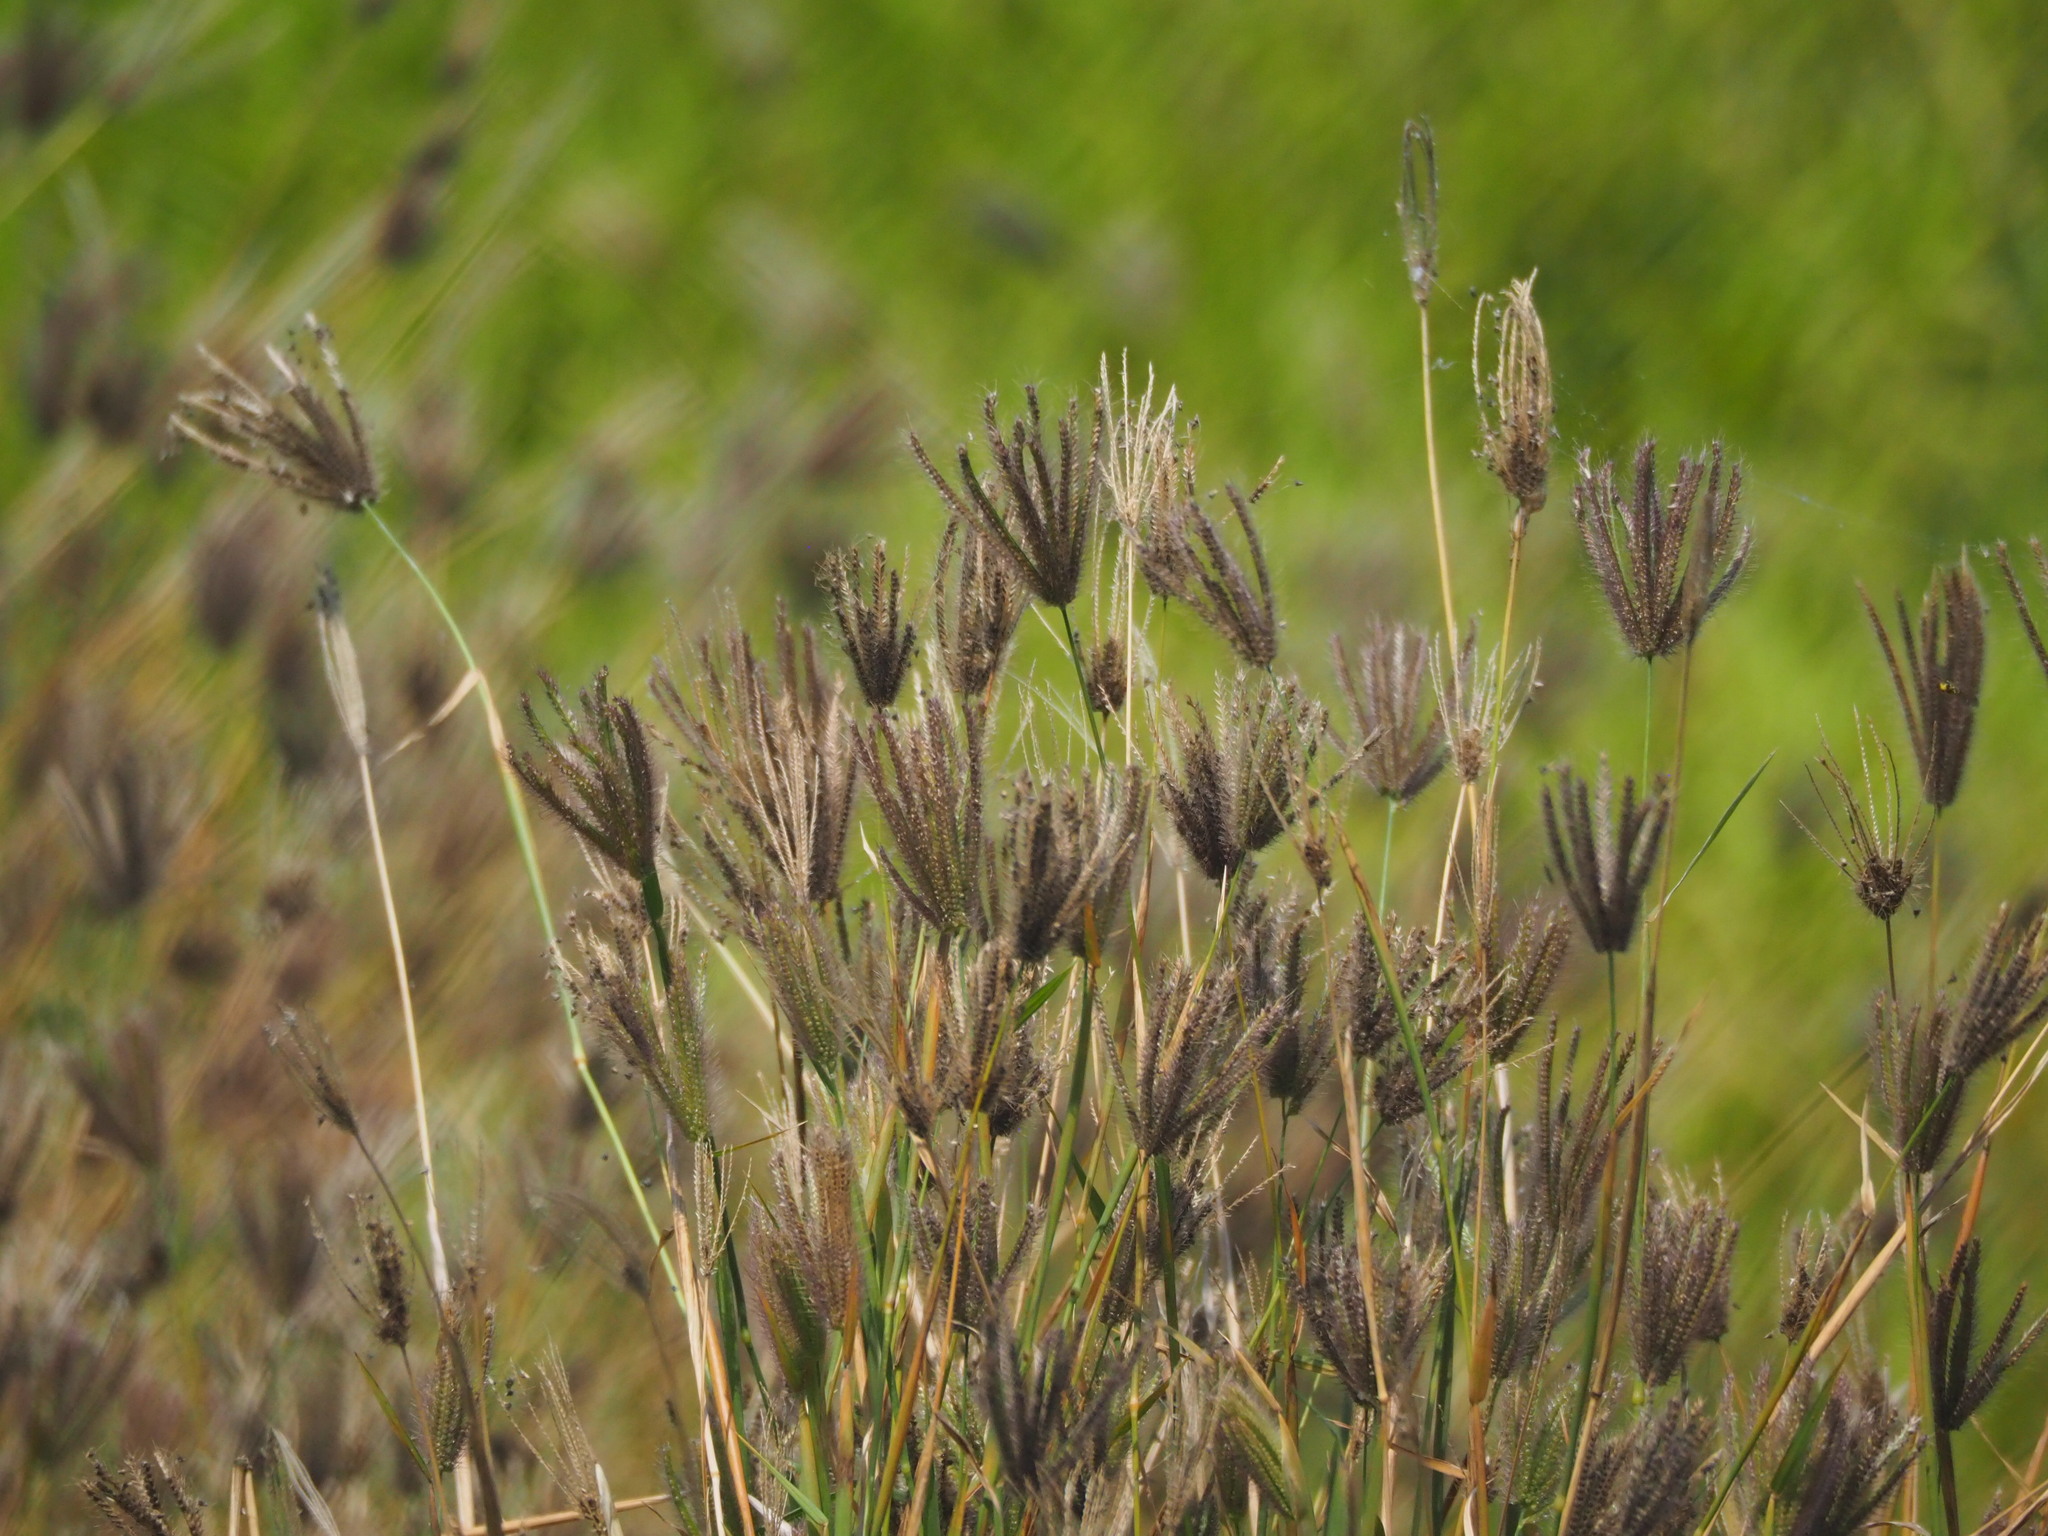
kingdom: Plantae
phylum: Tracheophyta
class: Liliopsida
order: Poales
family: Poaceae
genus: Chloris
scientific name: Chloris barbata
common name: Swollen fingergrass
